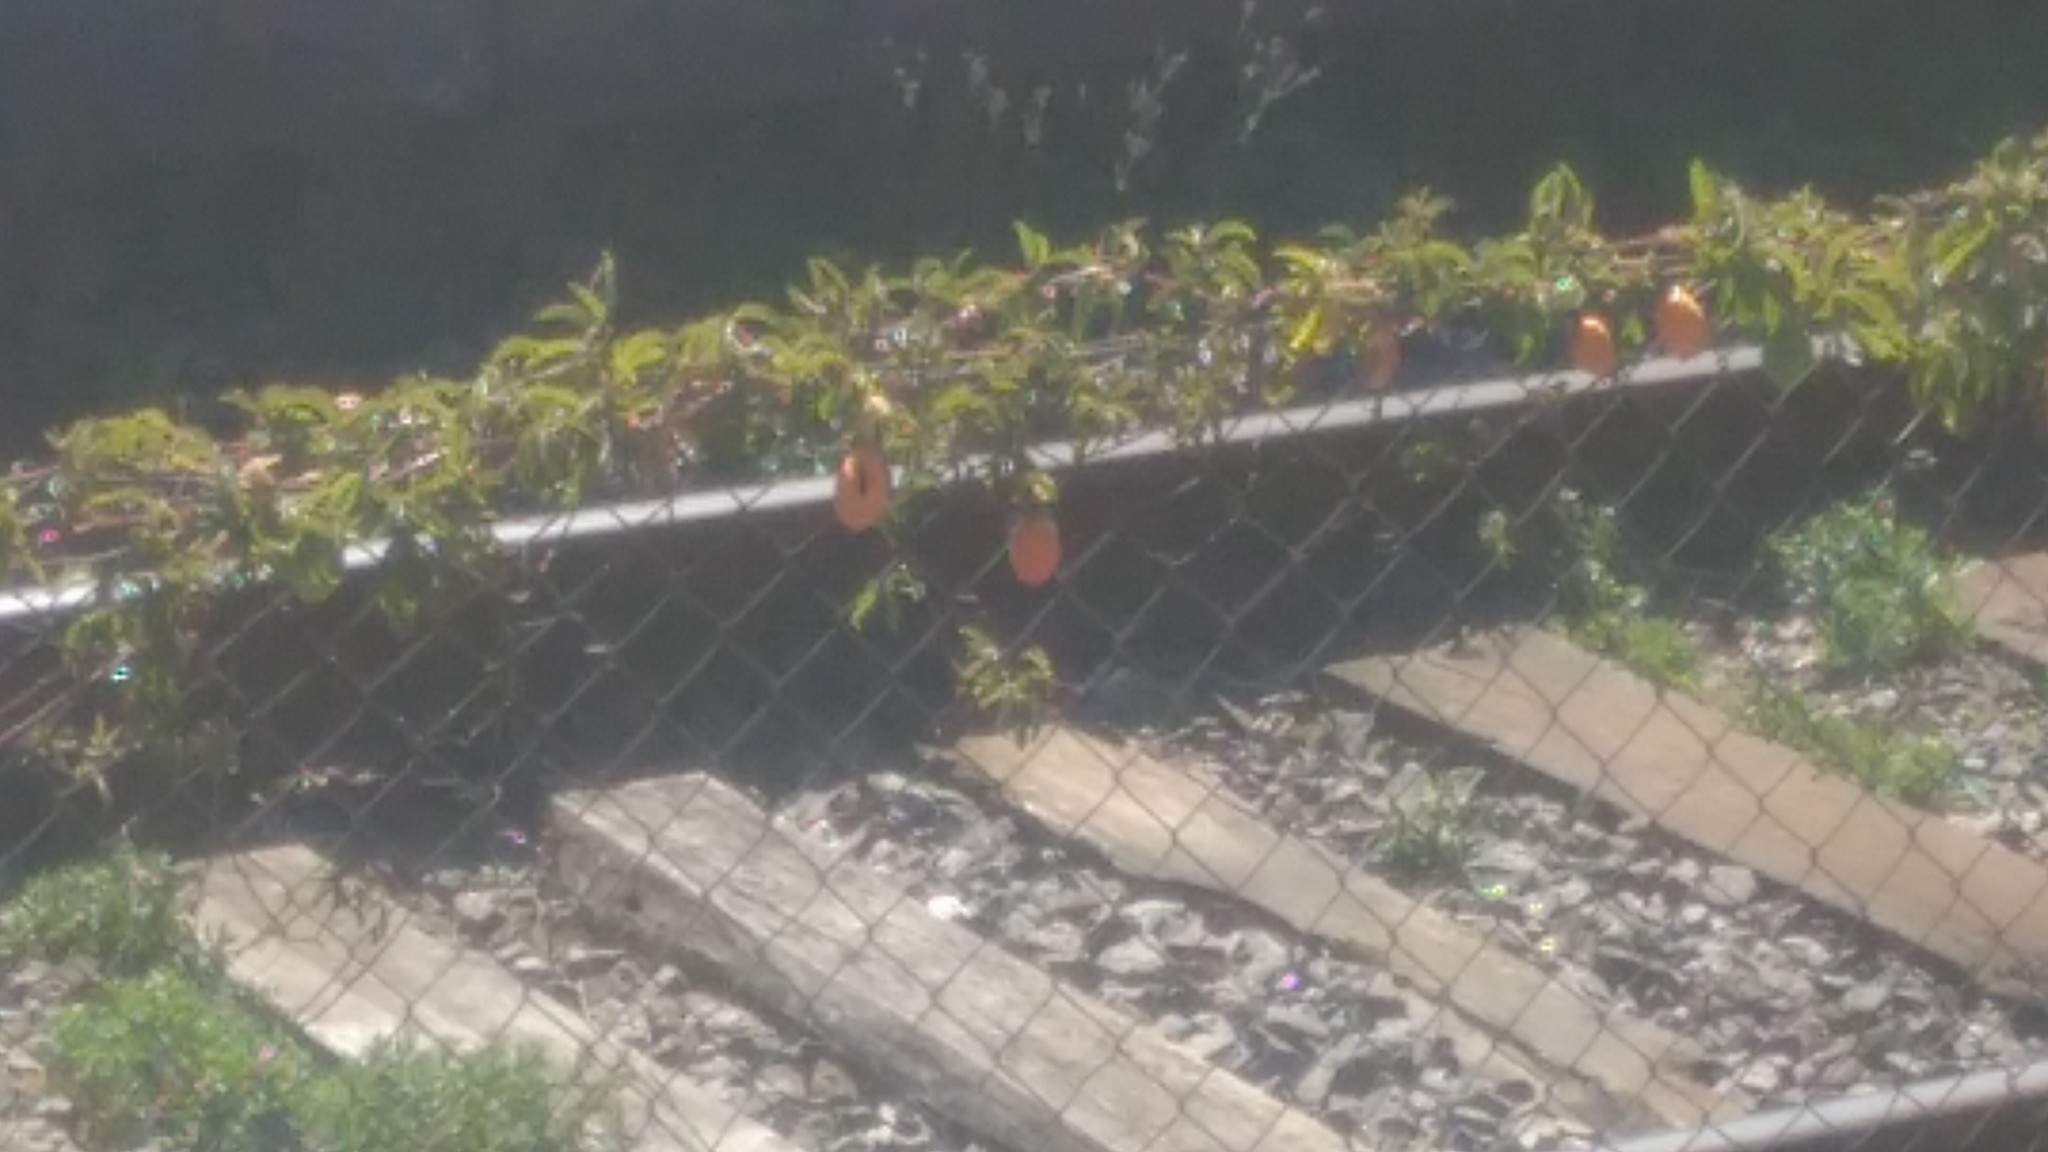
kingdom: Plantae
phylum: Tracheophyta
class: Magnoliopsida
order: Malpighiales
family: Passifloraceae
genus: Passiflora
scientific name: Passiflora caerulea
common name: Blue passionflower
